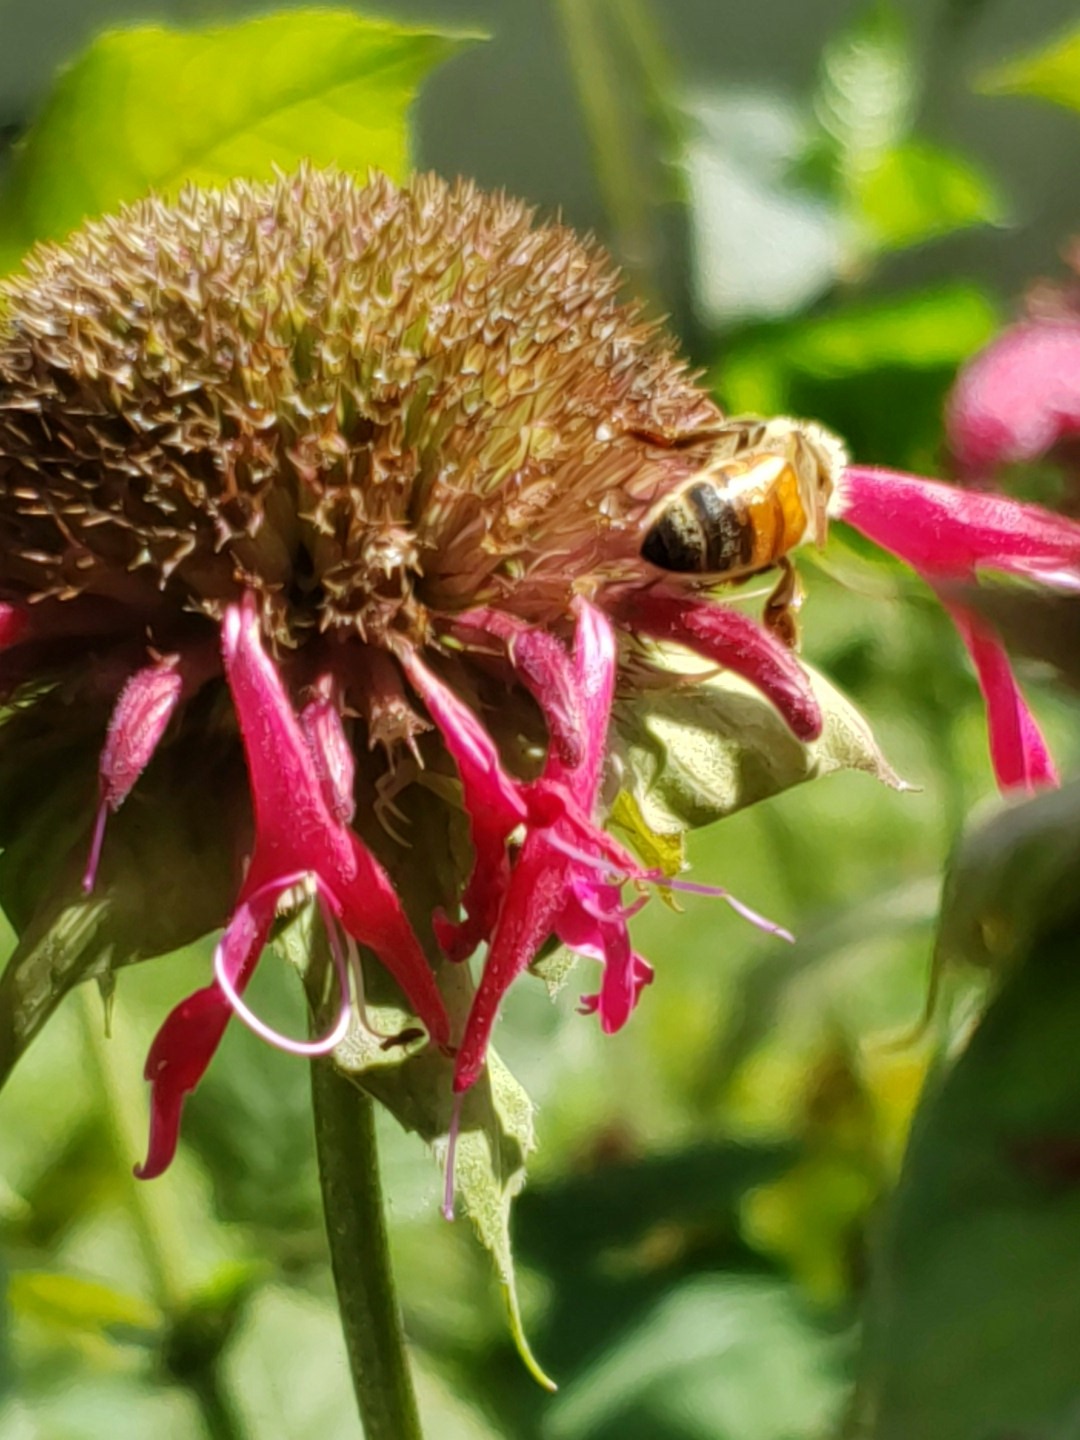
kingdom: Animalia
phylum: Arthropoda
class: Insecta
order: Hymenoptera
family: Apidae
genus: Apis
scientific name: Apis mellifera
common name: Honey bee
